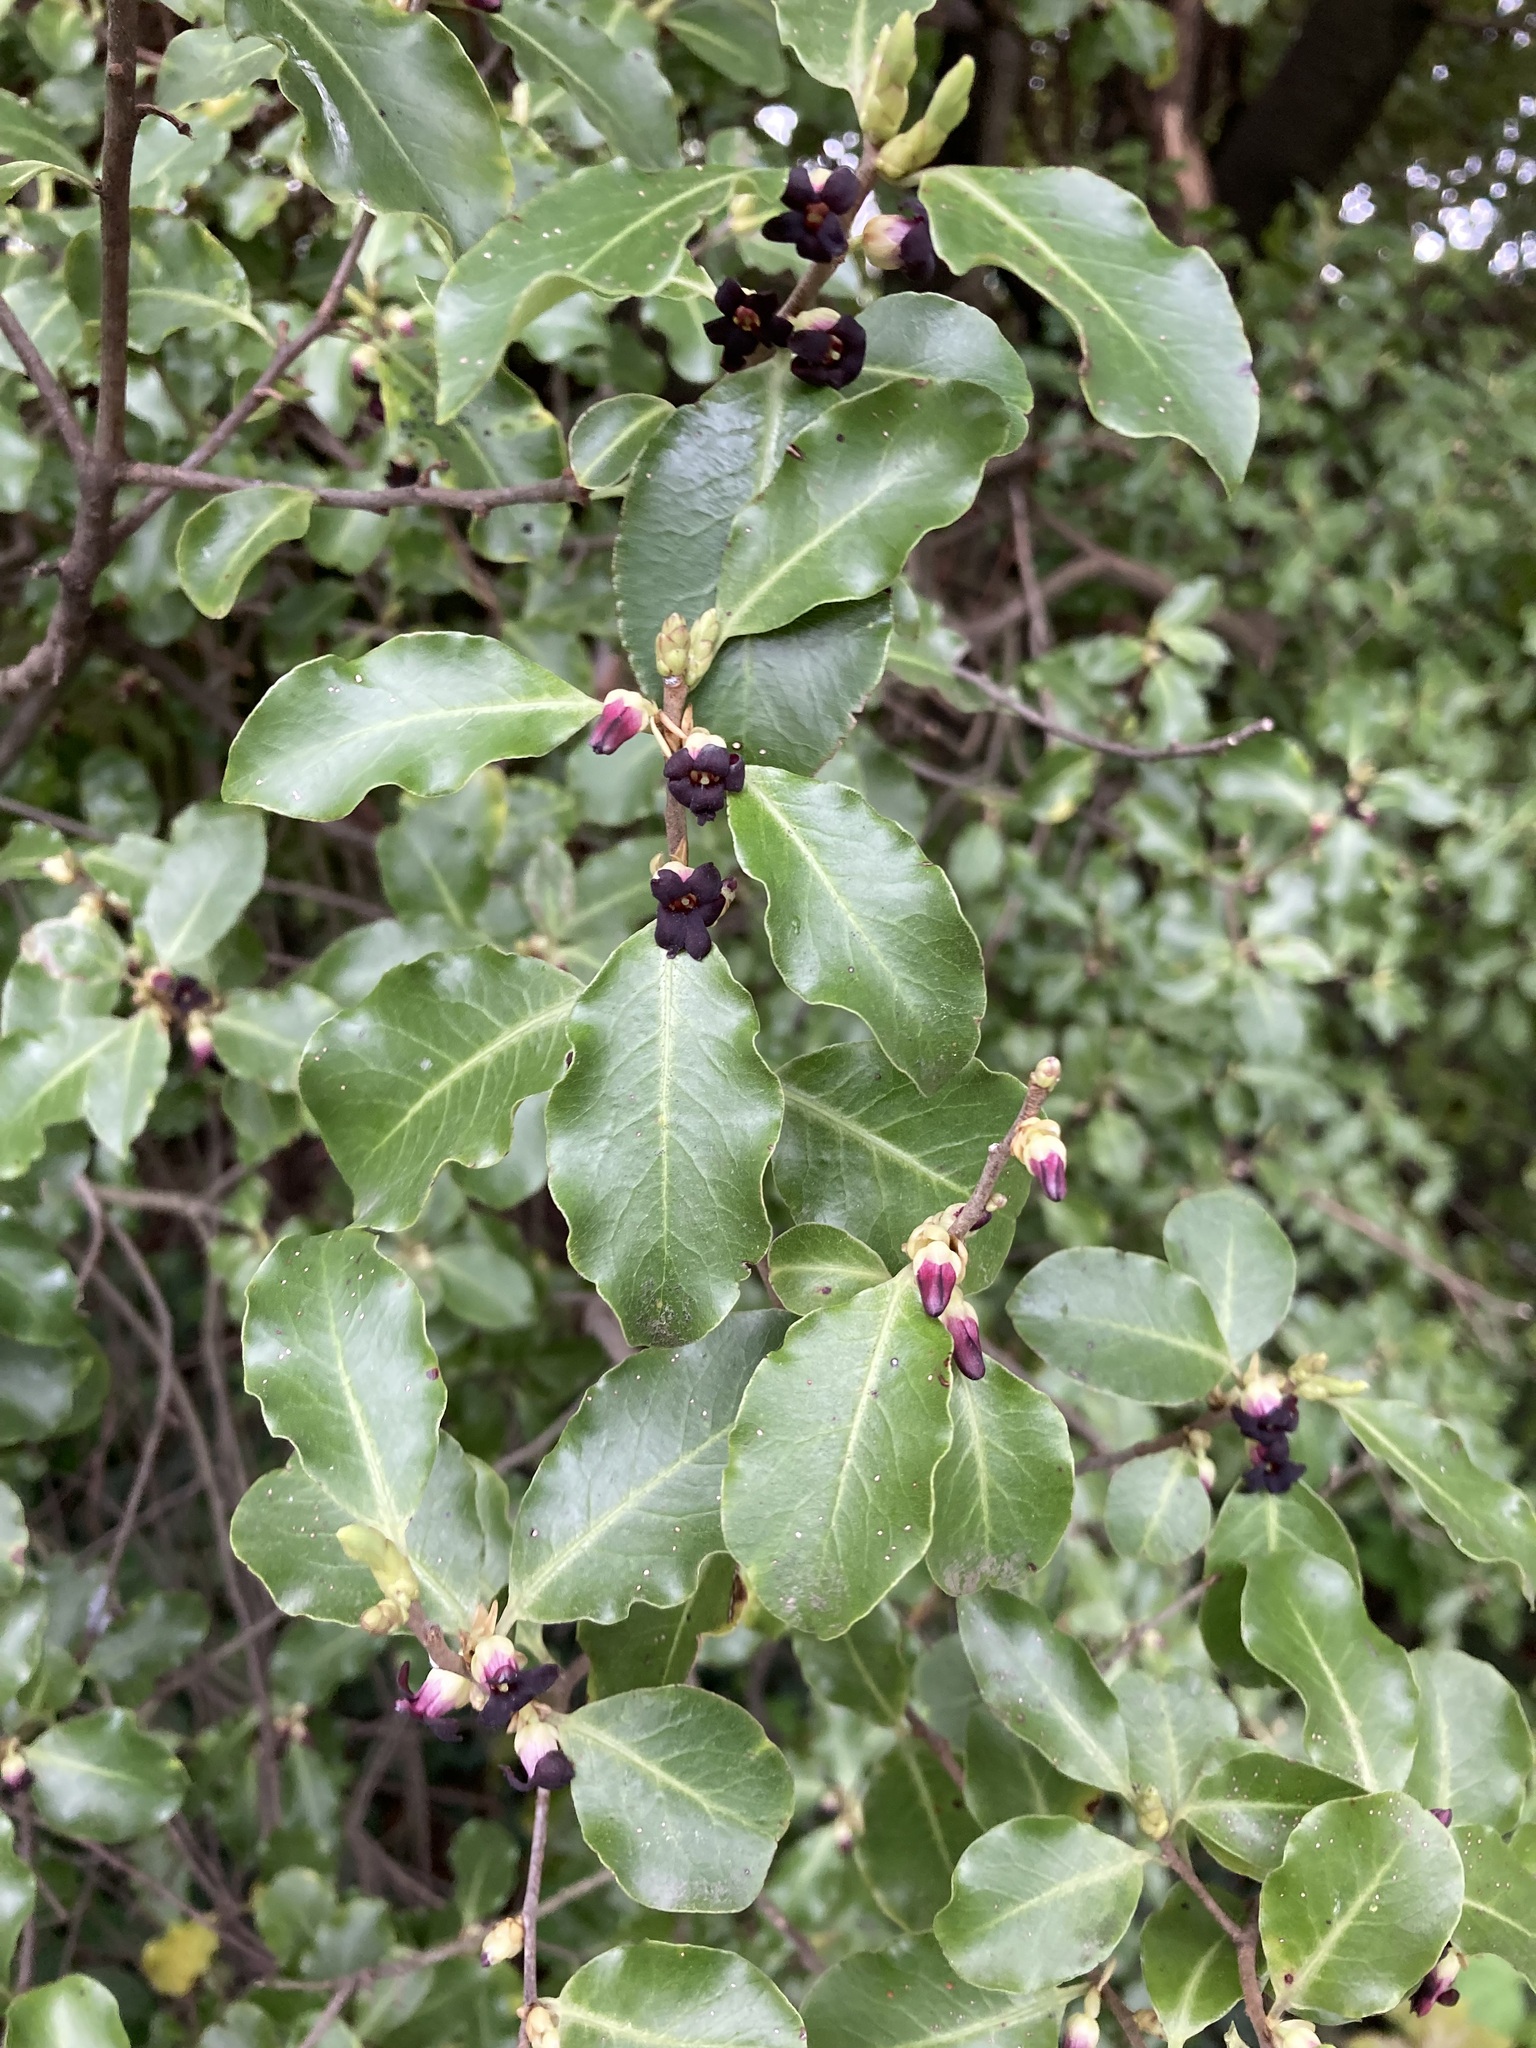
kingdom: Plantae
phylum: Tracheophyta
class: Magnoliopsida
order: Apiales
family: Pittosporaceae
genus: Pittosporum
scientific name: Pittosporum tenuifolium
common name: Kohuhu
